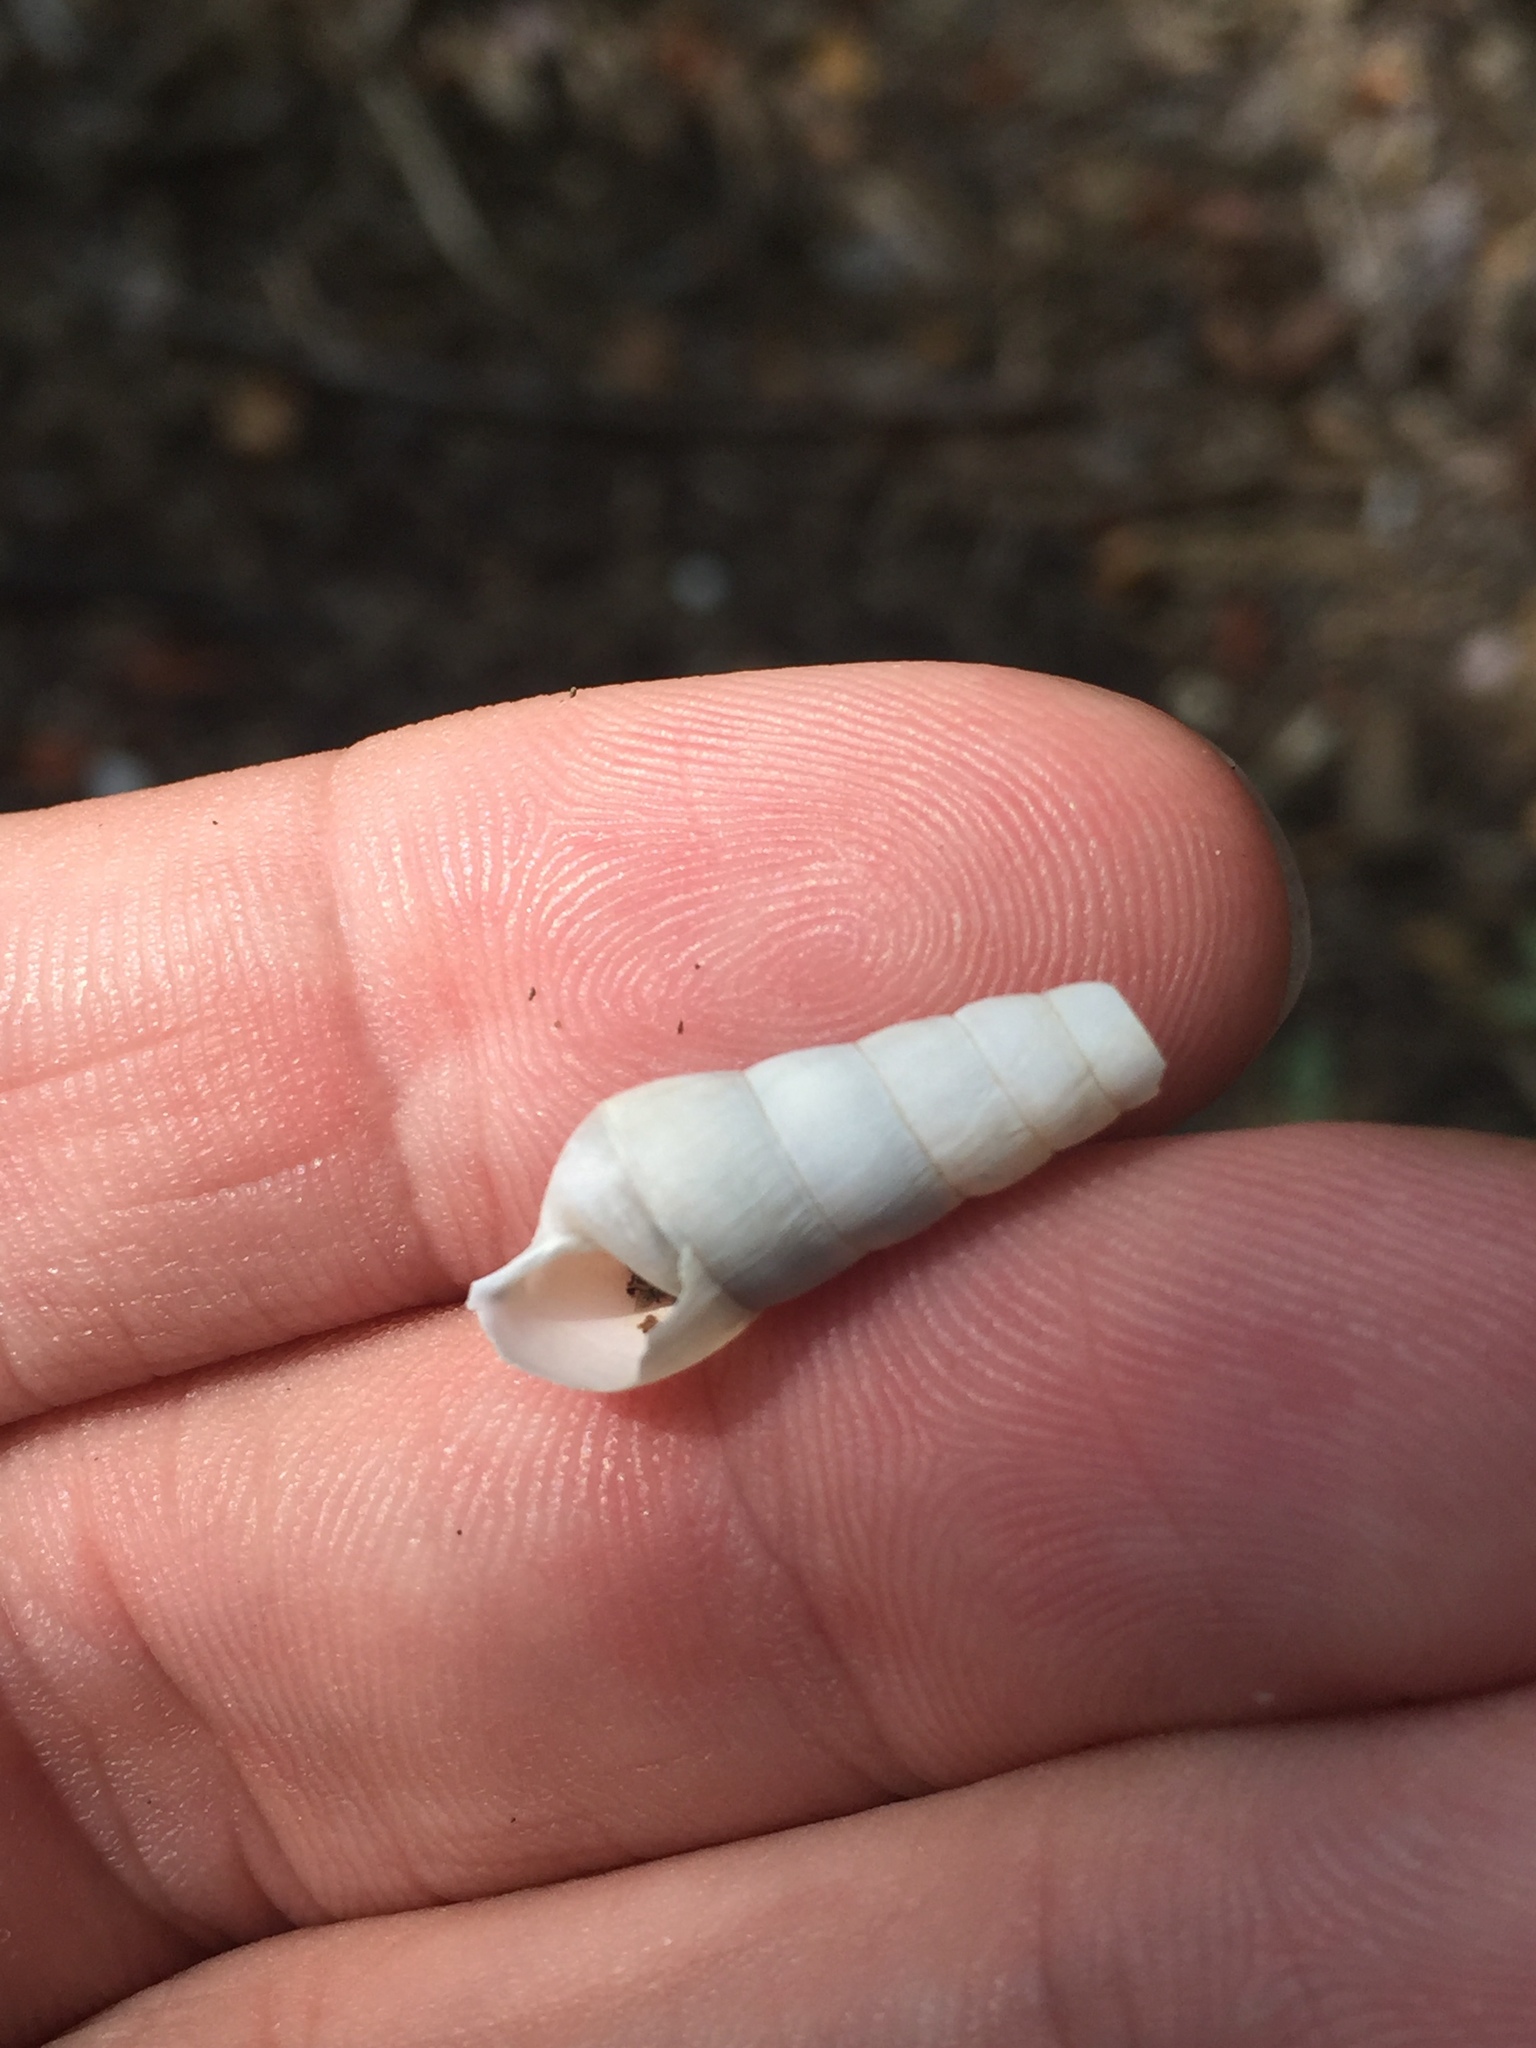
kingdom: Animalia
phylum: Mollusca
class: Gastropoda
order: Stylommatophora
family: Achatinidae
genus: Rumina
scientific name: Rumina decollata
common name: Decollate snail
